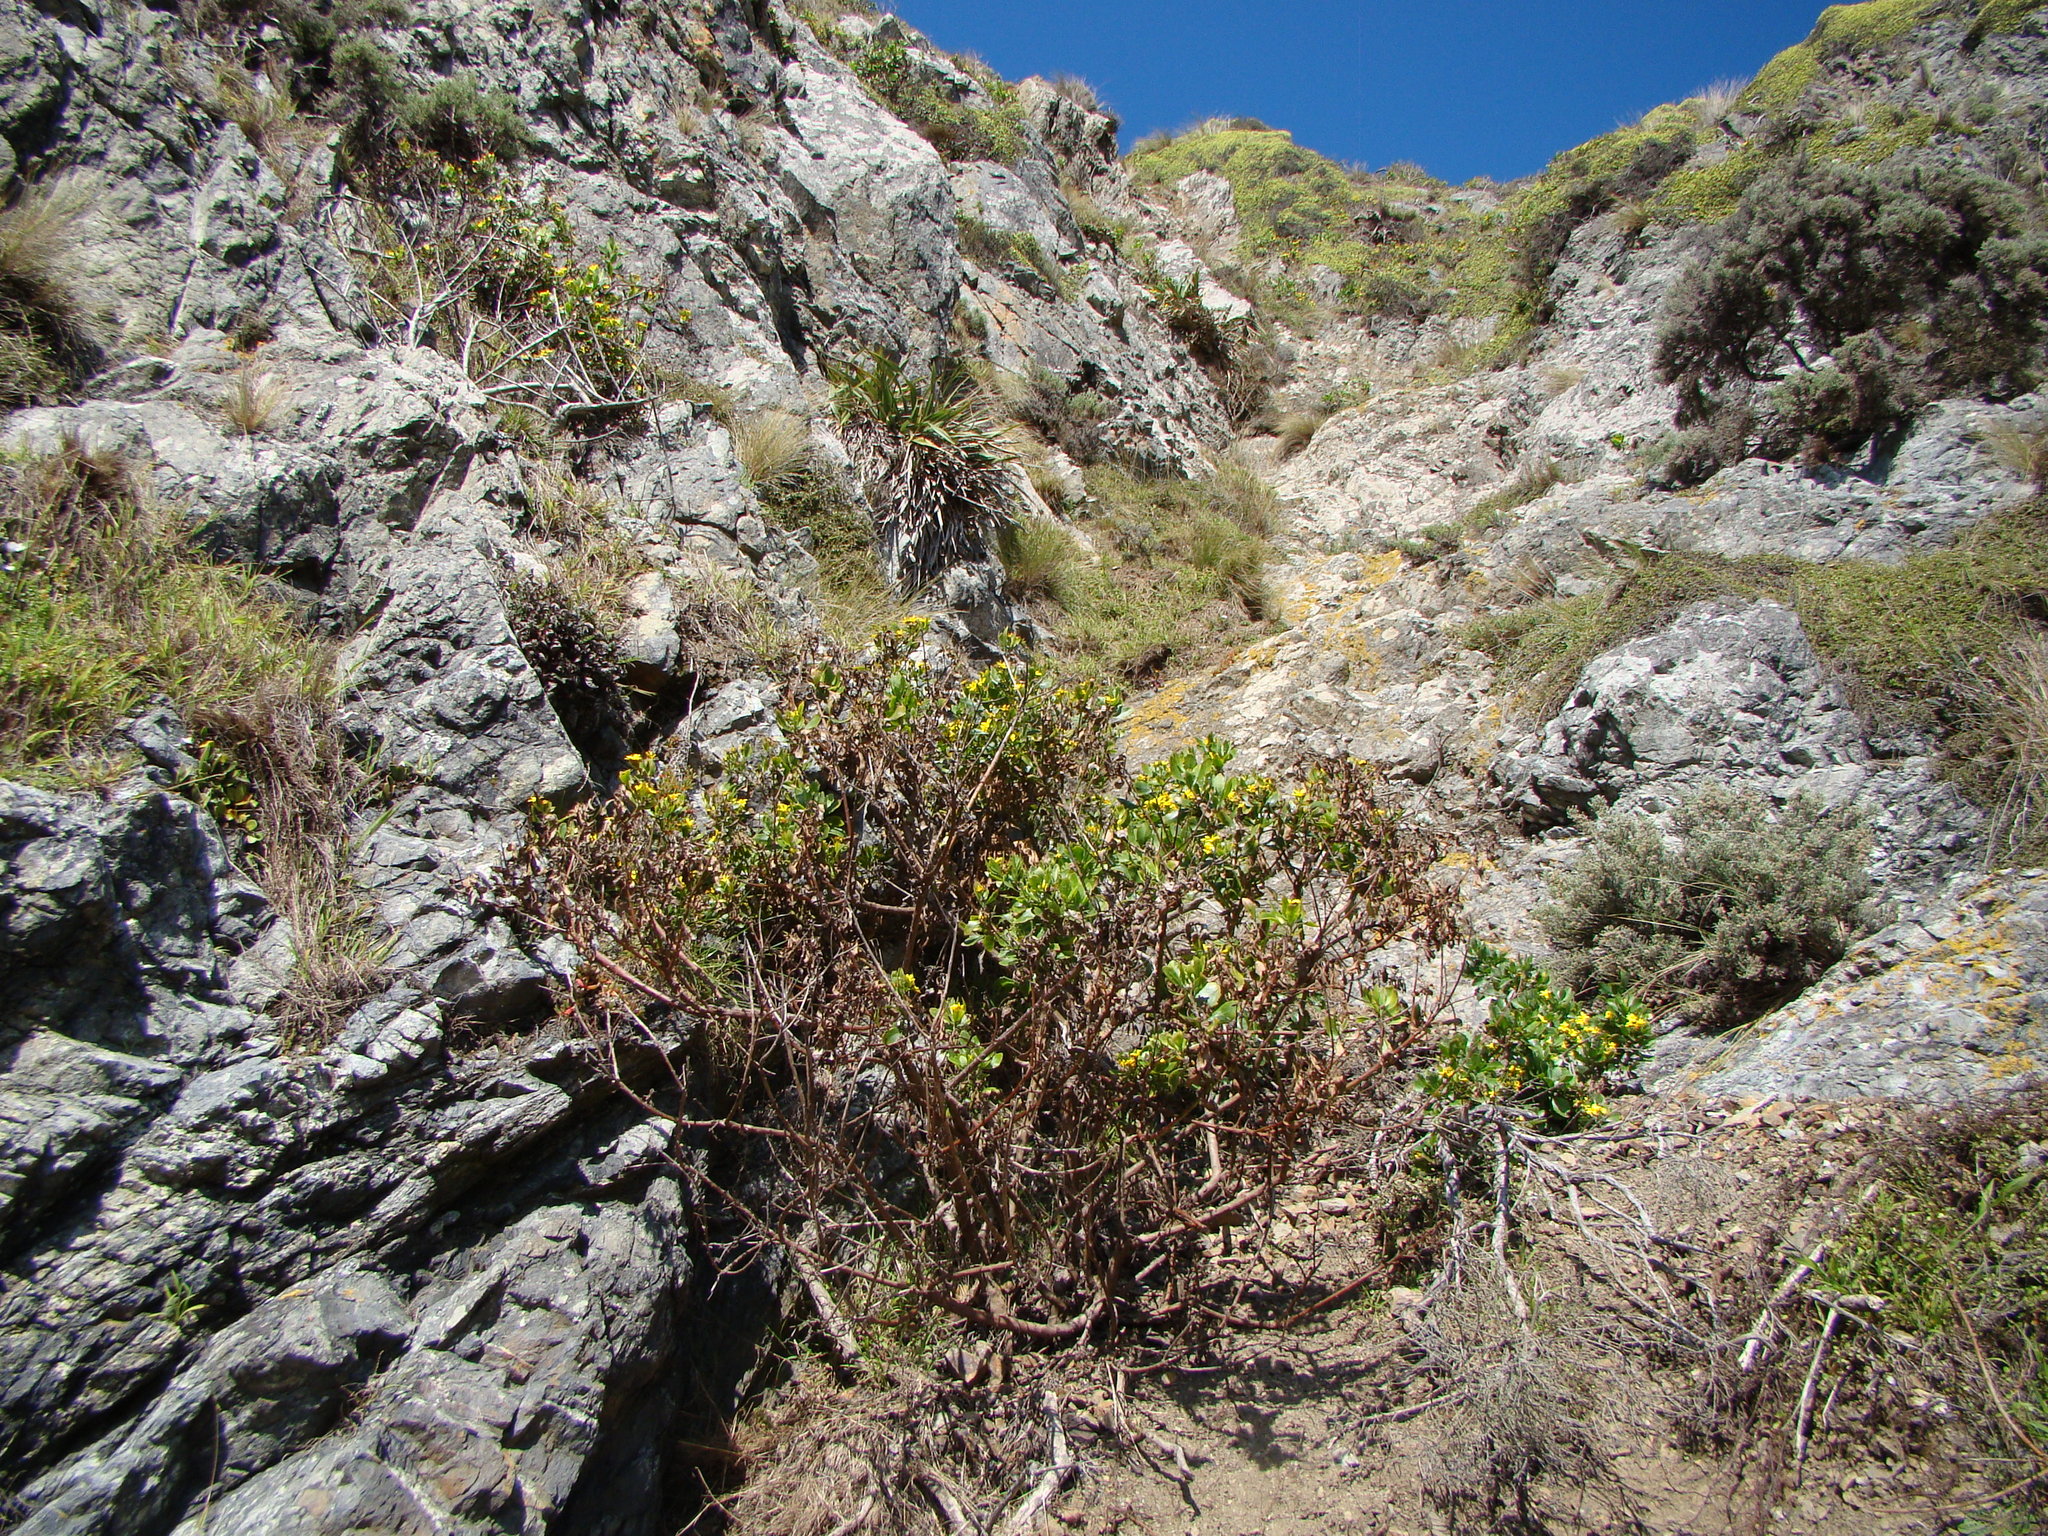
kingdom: Plantae
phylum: Tracheophyta
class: Magnoliopsida
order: Asterales
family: Asteraceae
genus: Osteospermum
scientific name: Osteospermum moniliferum
